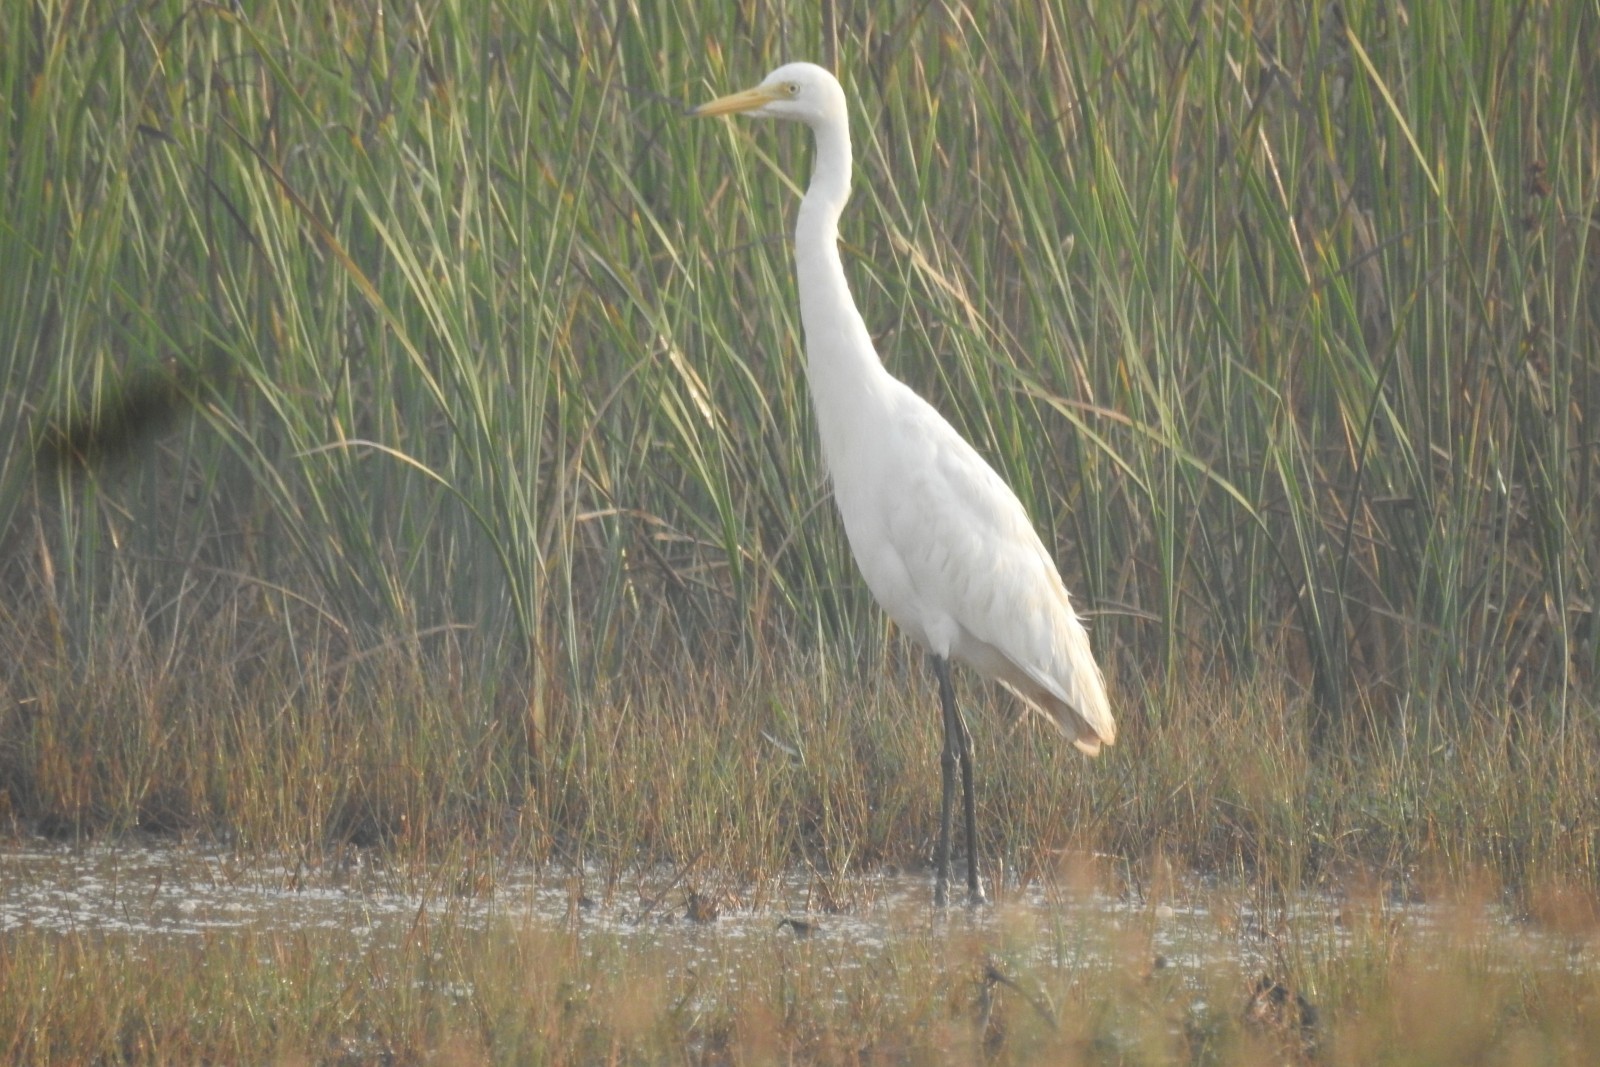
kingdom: Animalia
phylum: Chordata
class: Aves
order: Pelecaniformes
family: Ardeidae
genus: Egretta
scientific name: Egretta intermedia
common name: Intermediate egret
